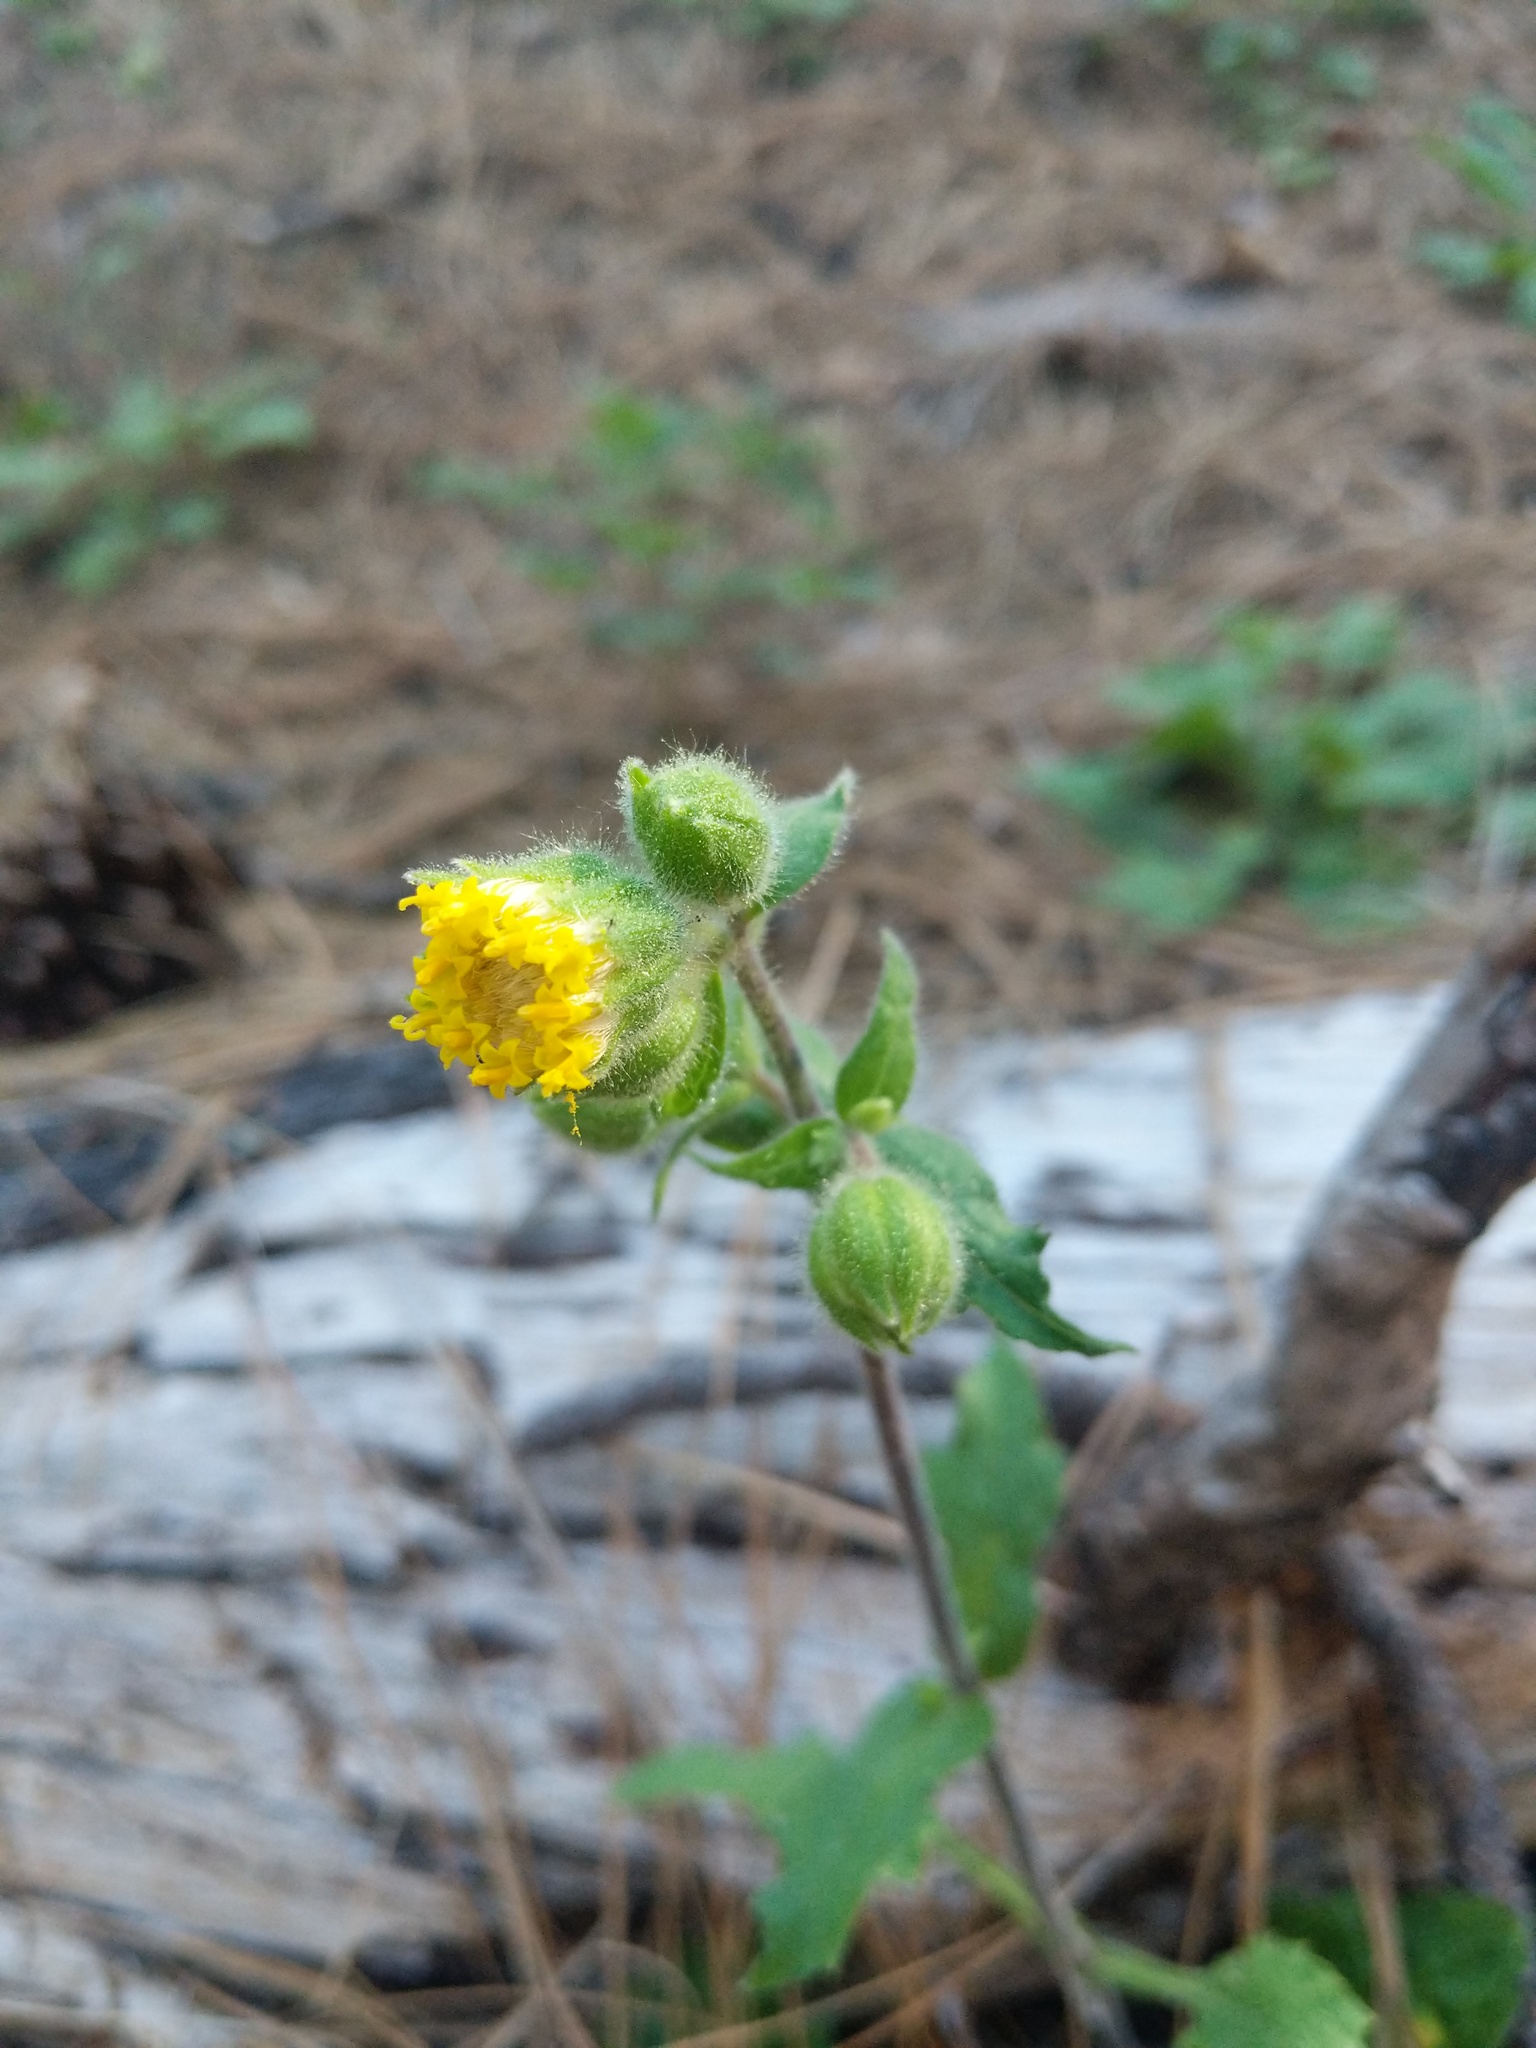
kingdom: Plantae
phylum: Tracheophyta
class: Magnoliopsida
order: Asterales
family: Asteraceae
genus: Arnica
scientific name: Arnica discoidea
